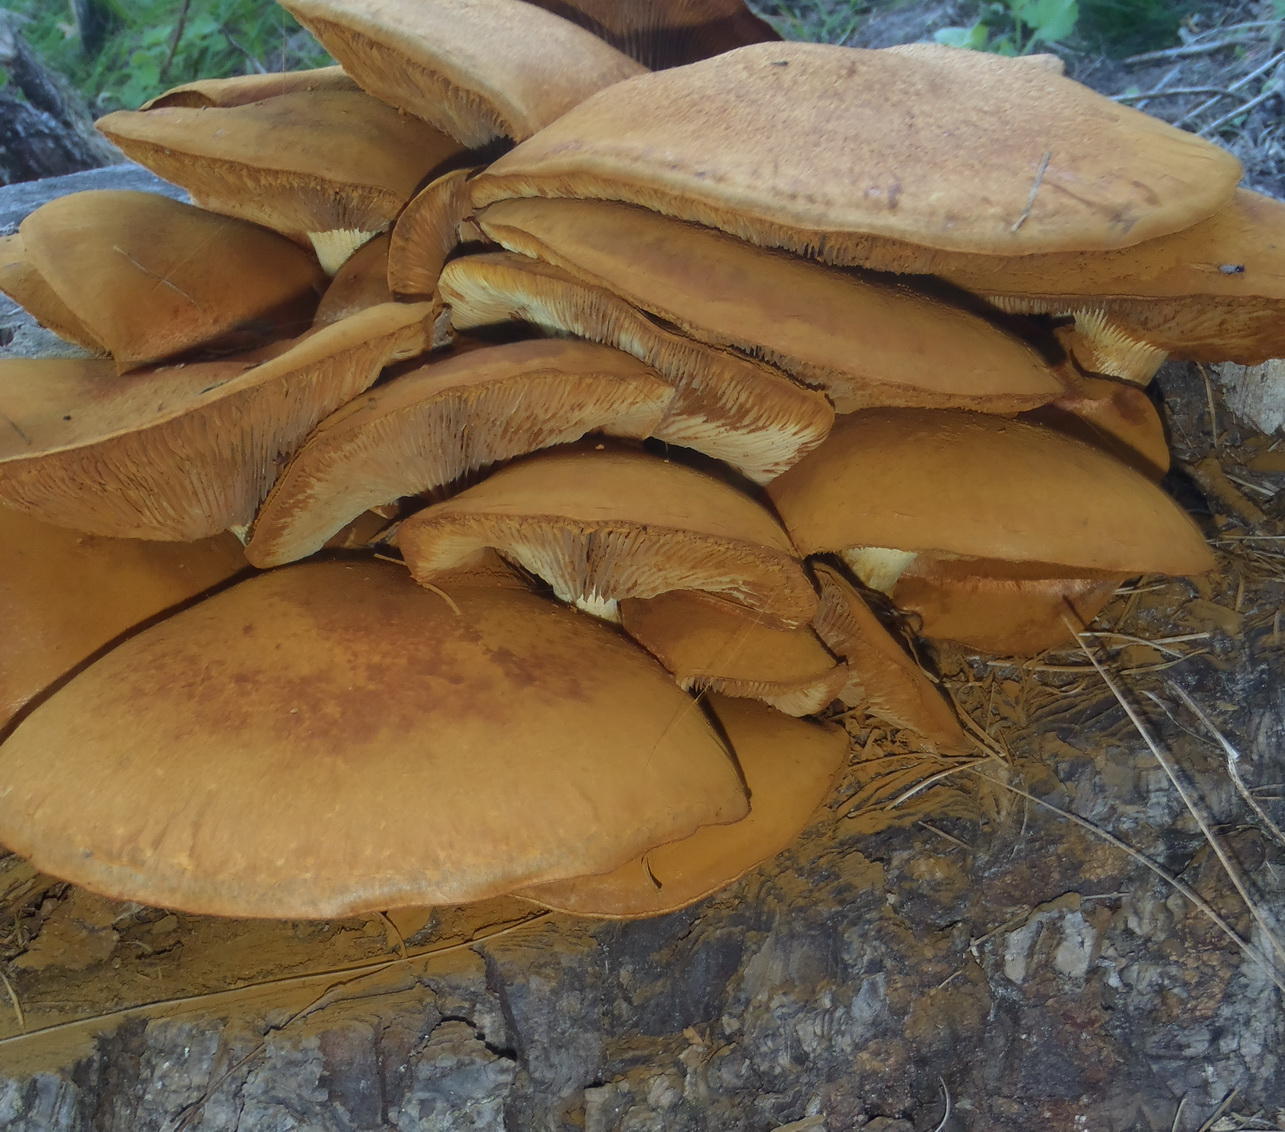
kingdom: Fungi
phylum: Basidiomycota
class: Agaricomycetes
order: Agaricales
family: Hymenogastraceae
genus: Gymnopilus
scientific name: Gymnopilus junonius
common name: Spectacular rustgill
